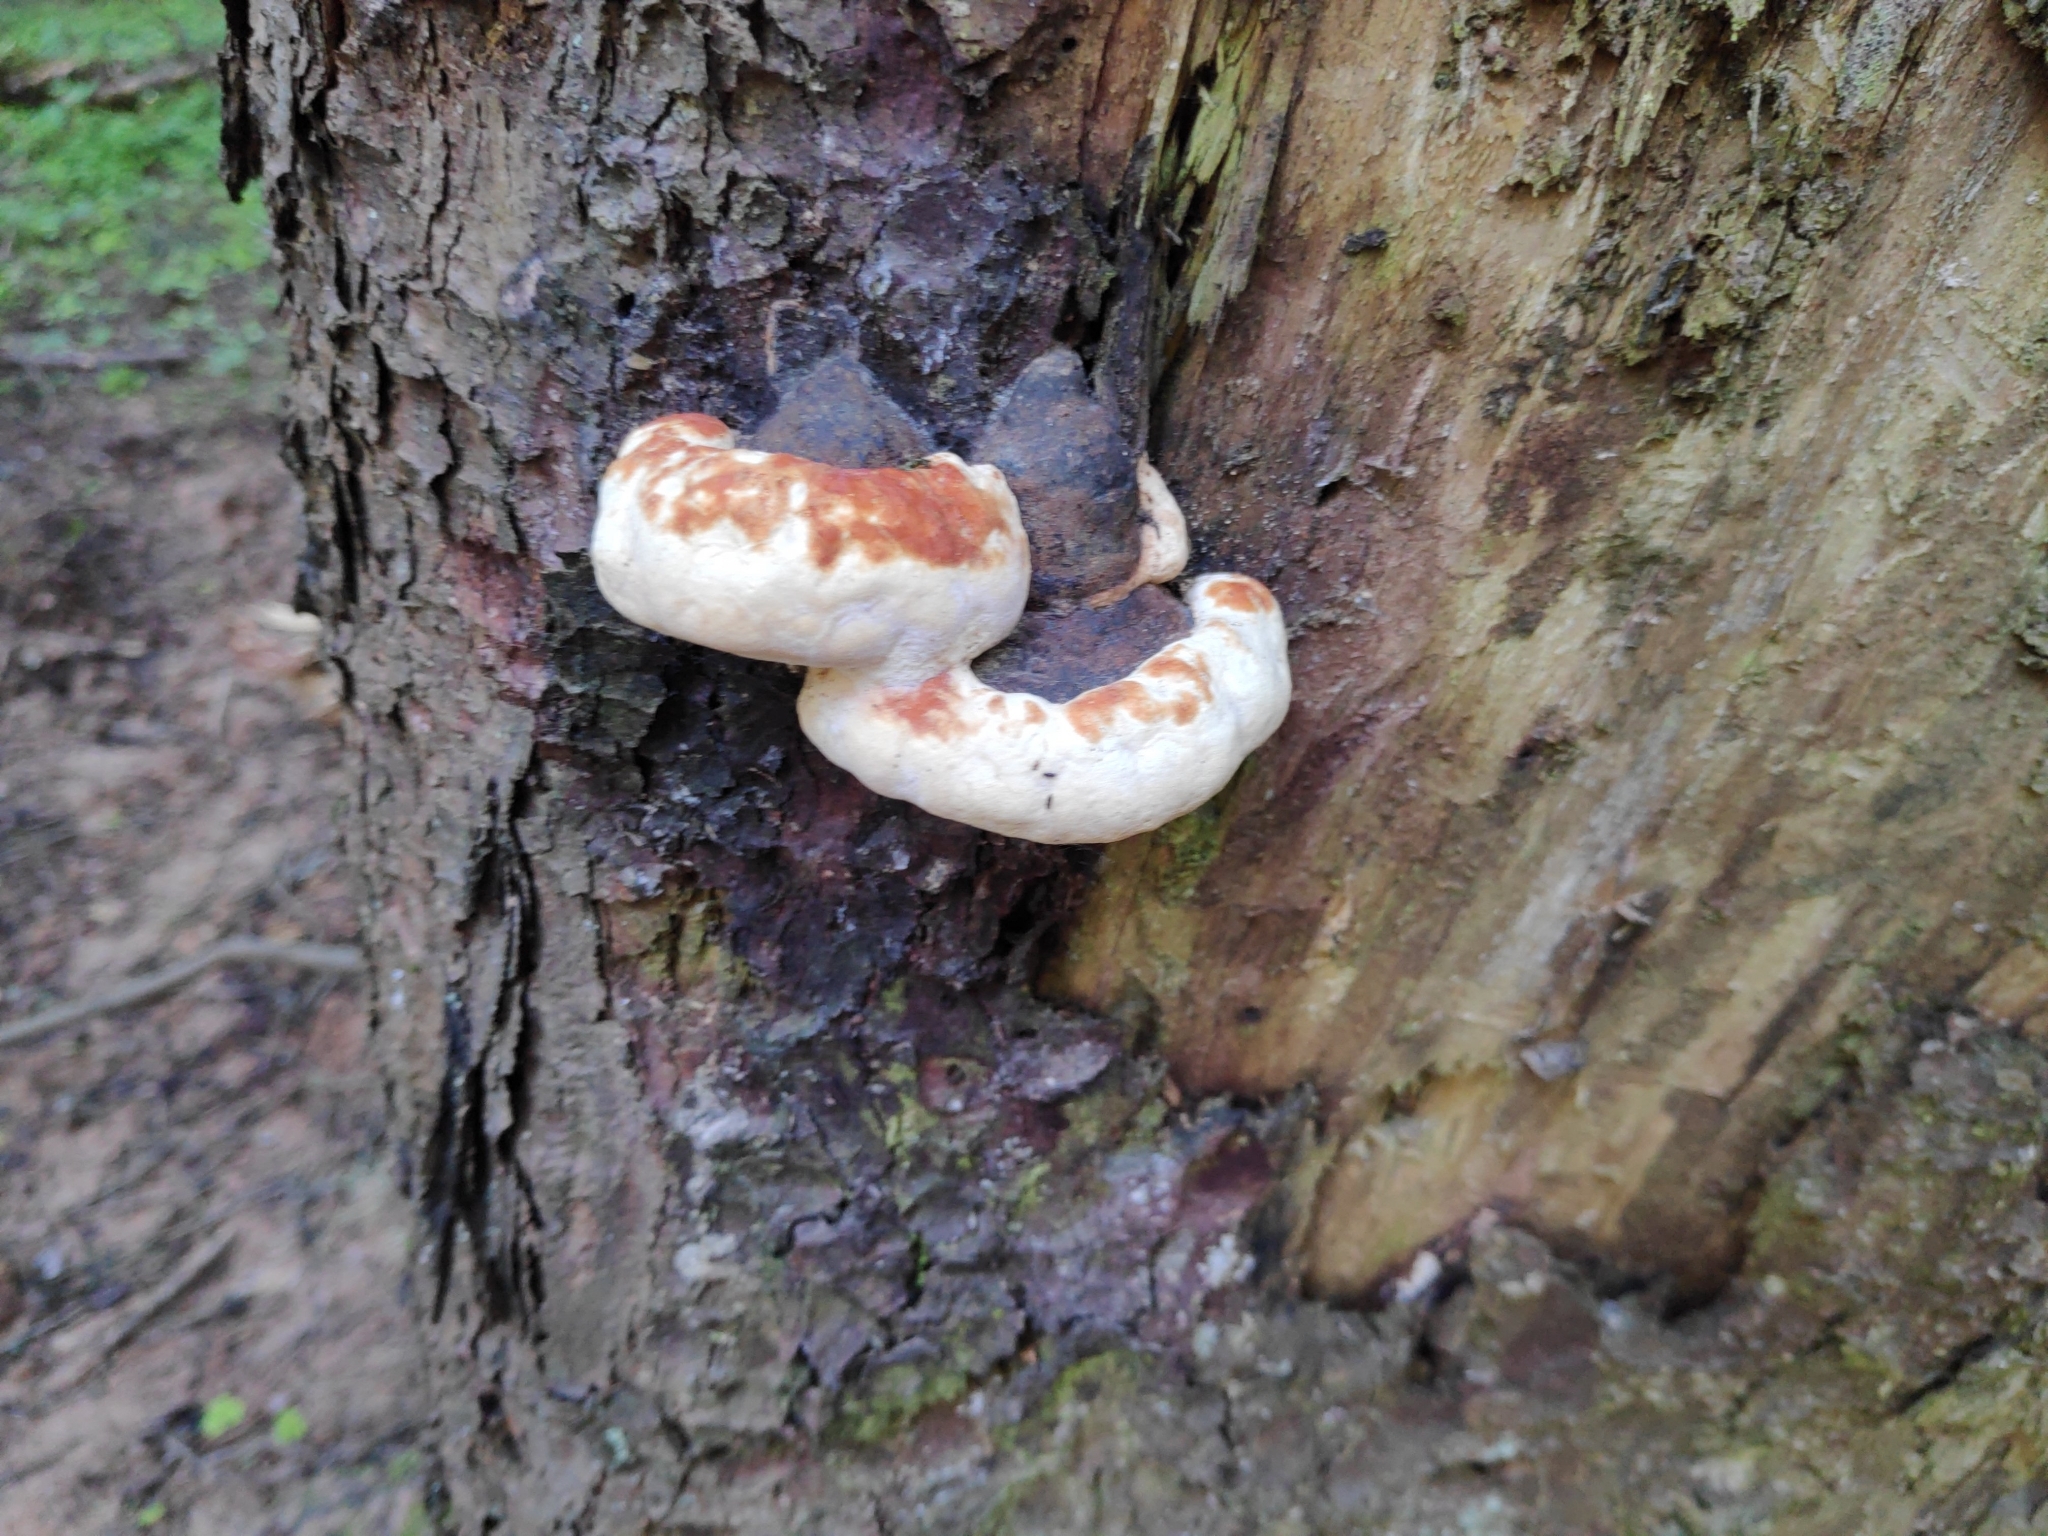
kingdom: Fungi
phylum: Basidiomycota
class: Agaricomycetes
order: Polyporales
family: Fomitopsidaceae
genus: Fomitopsis
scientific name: Fomitopsis pinicola
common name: Red-belted bracket
